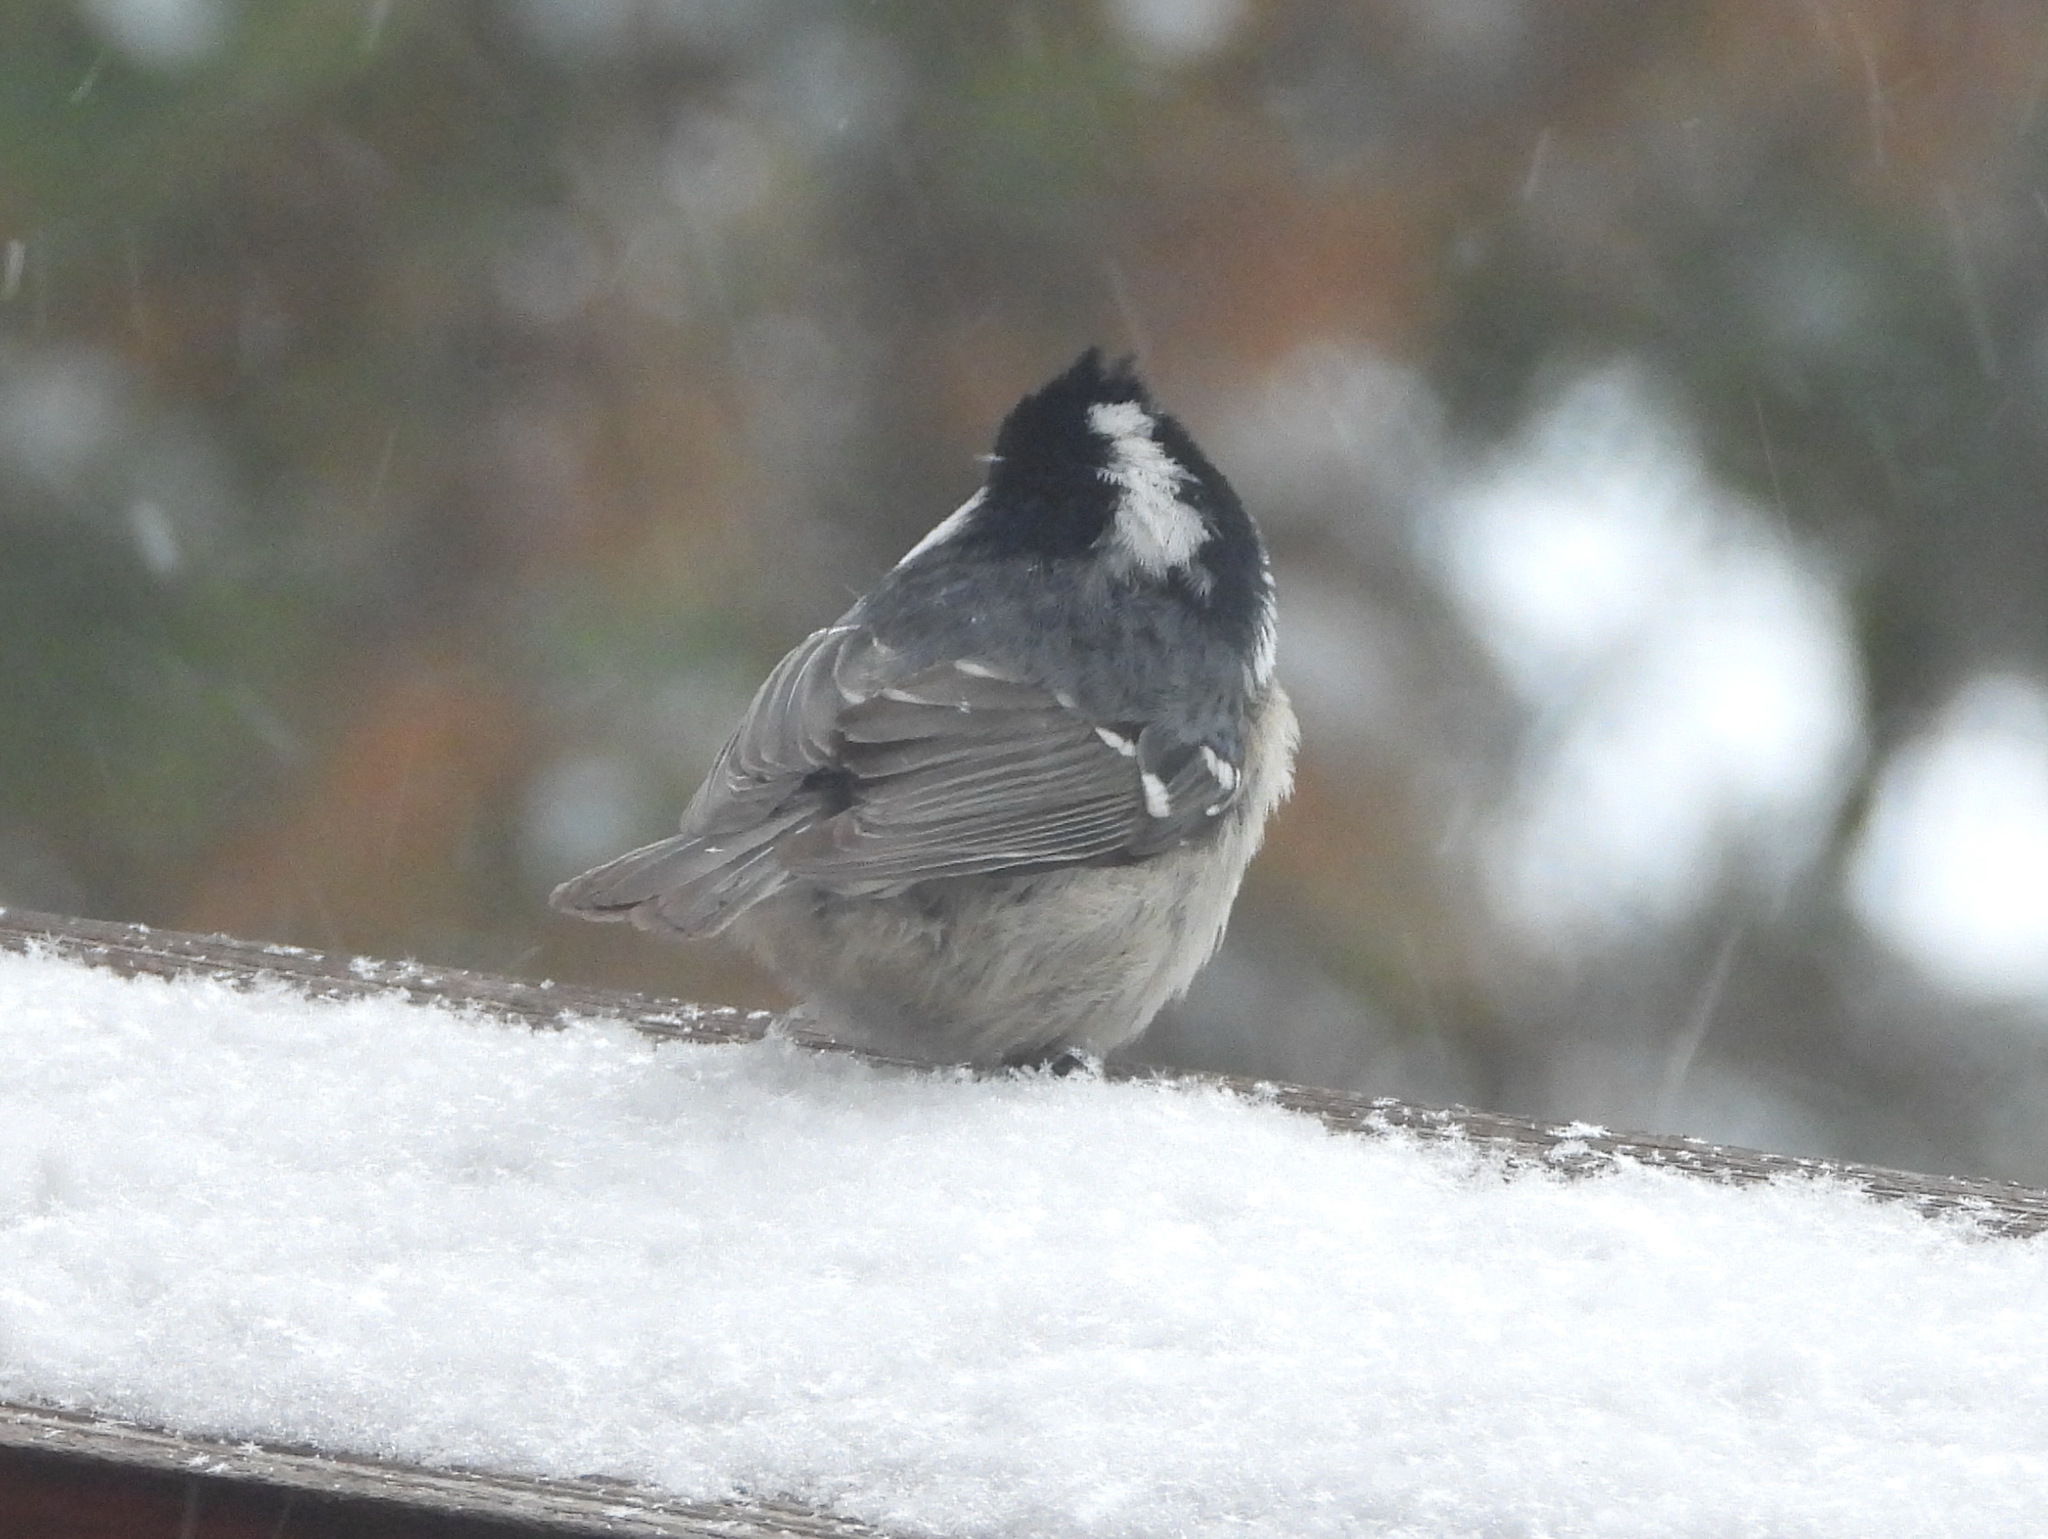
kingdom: Animalia
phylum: Chordata
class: Aves
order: Passeriformes
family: Paridae
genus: Periparus
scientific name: Periparus ater
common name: Coal tit
